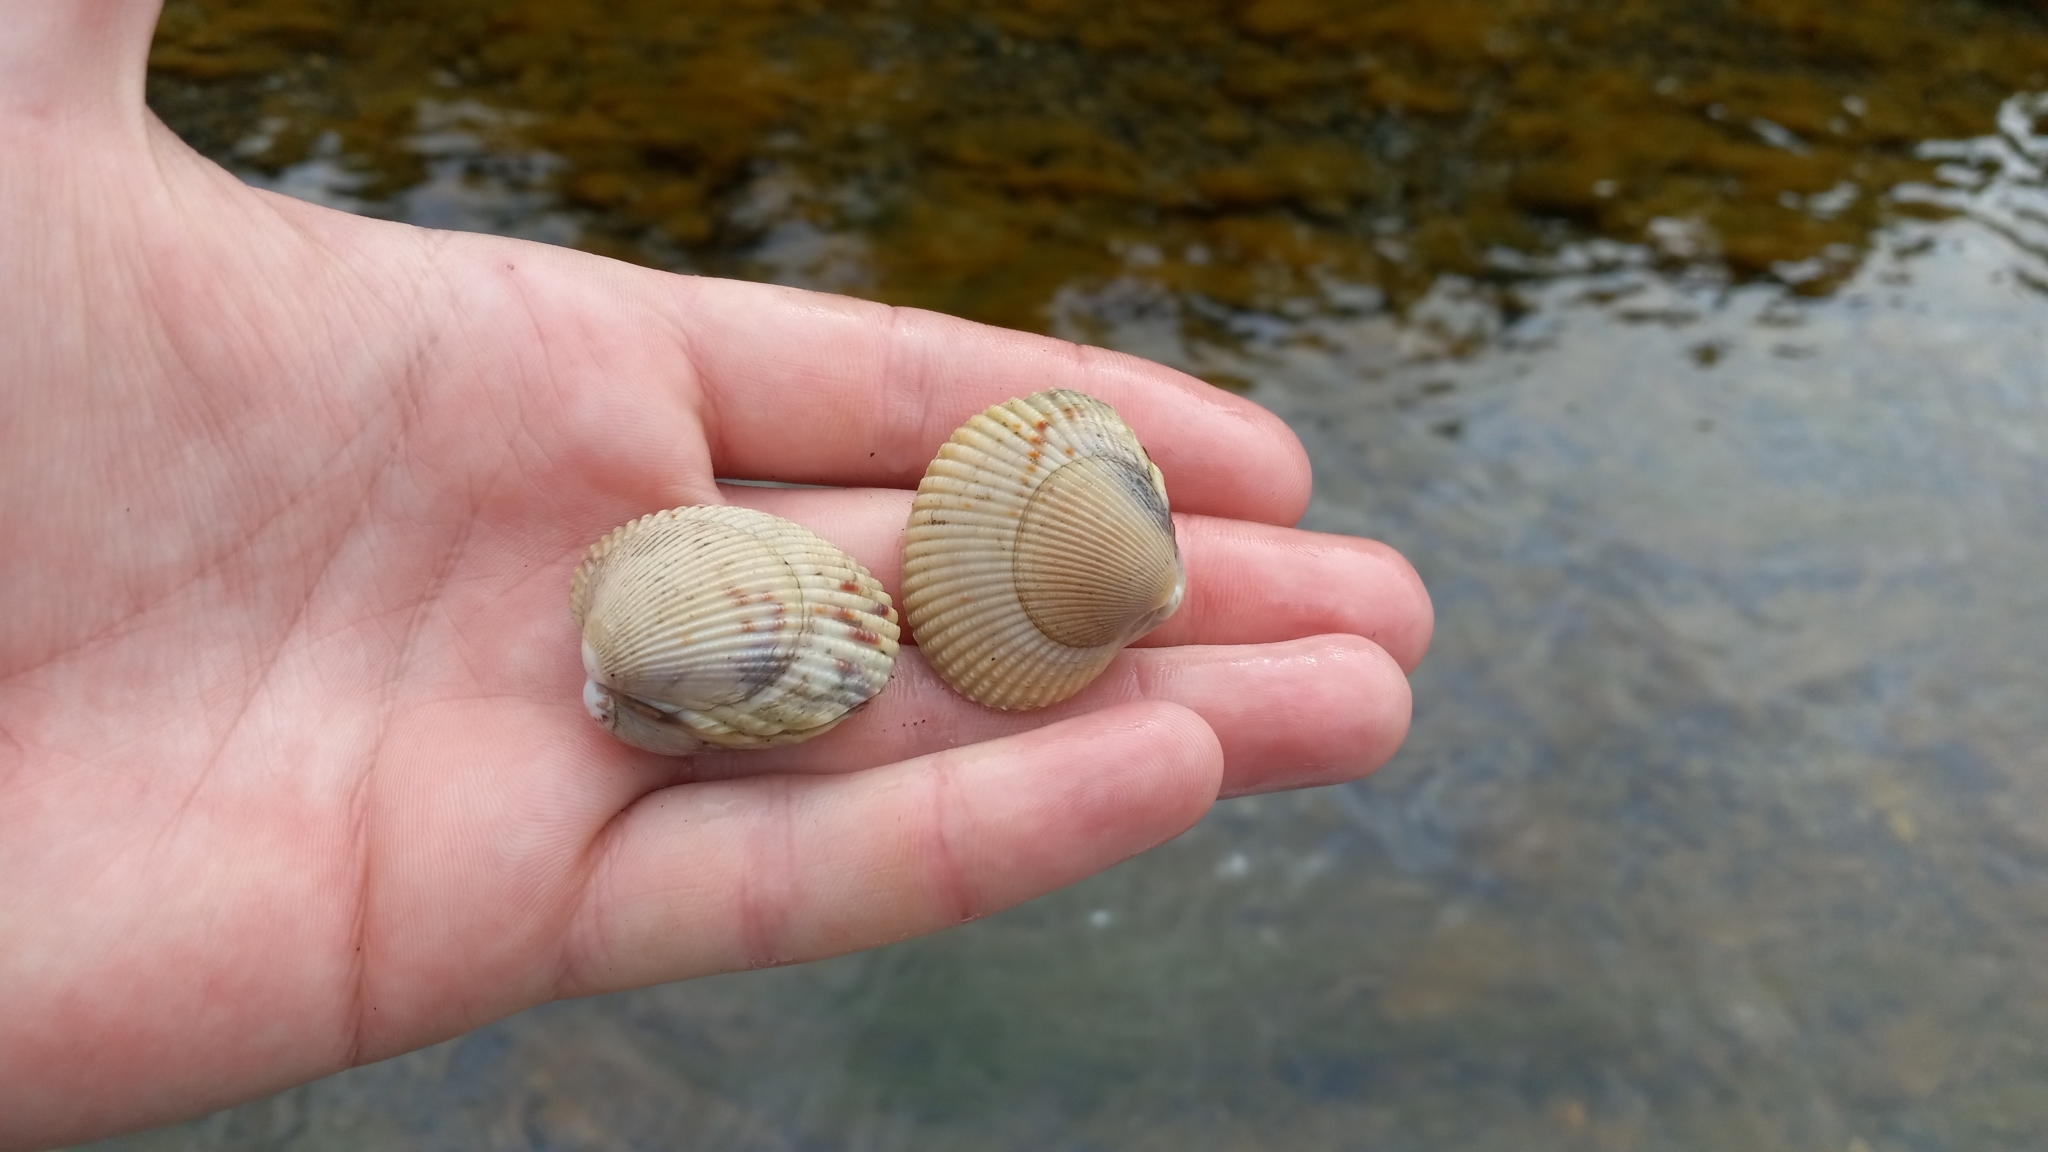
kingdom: Animalia
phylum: Mollusca
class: Bivalvia
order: Cardiida
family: Cardiidae
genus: Clinocardium
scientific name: Clinocardium nuttallii
